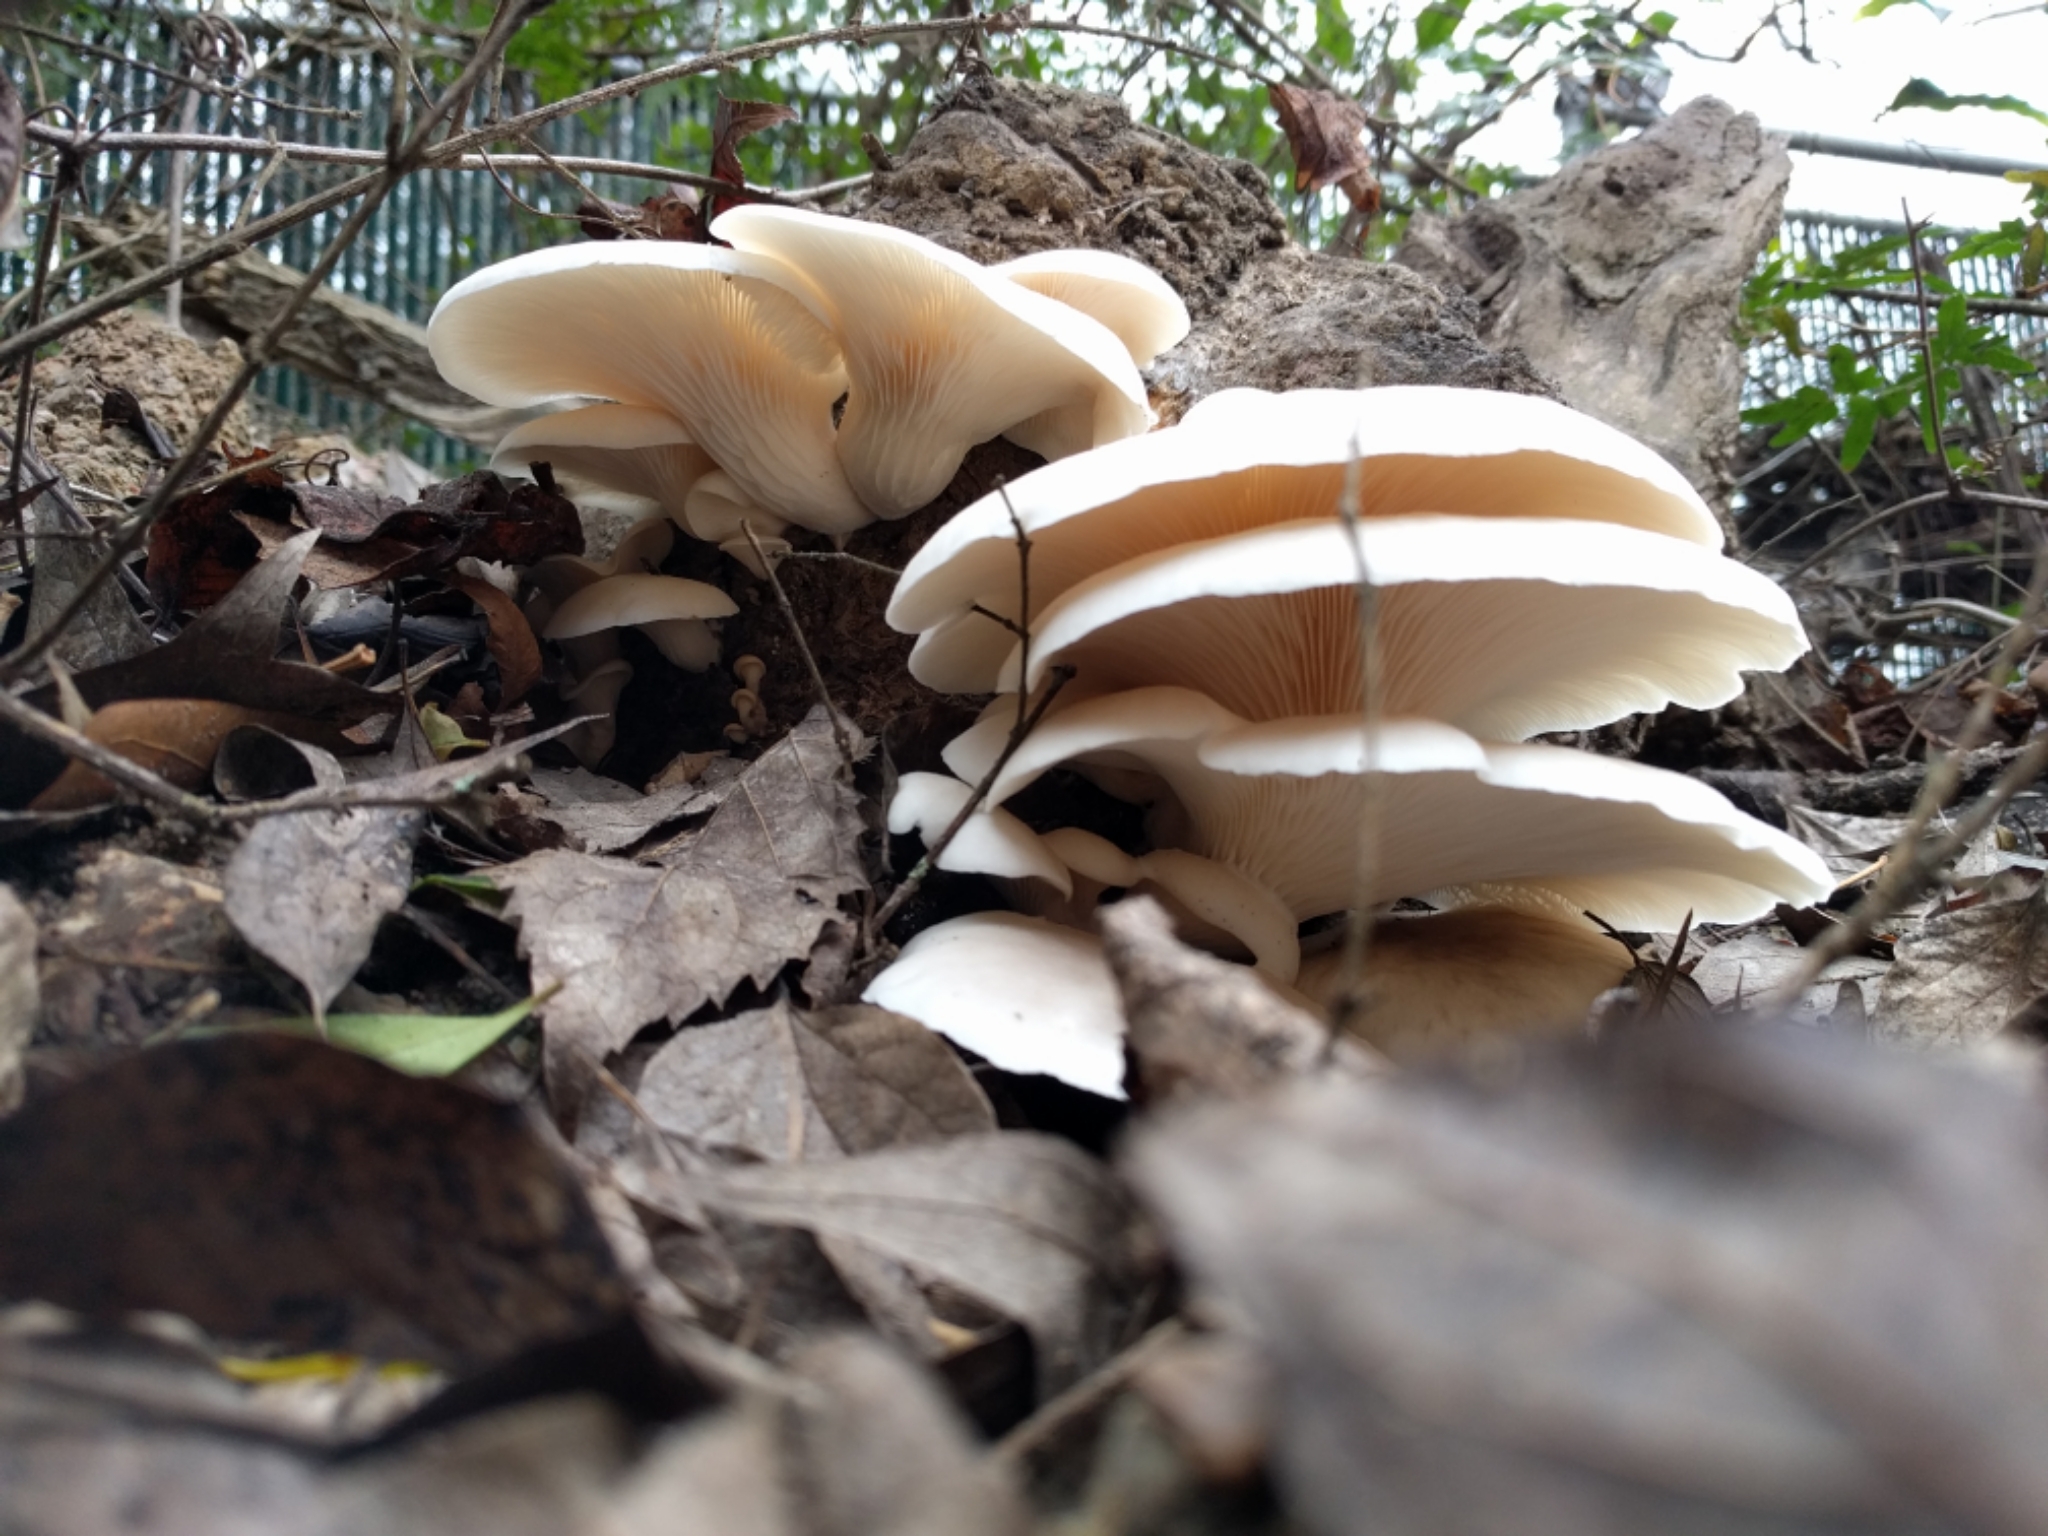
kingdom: Fungi
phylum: Basidiomycota
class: Agaricomycetes
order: Agaricales
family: Pleurotaceae
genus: Pleurotus
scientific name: Pleurotus ostreatus
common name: Oyster mushroom
